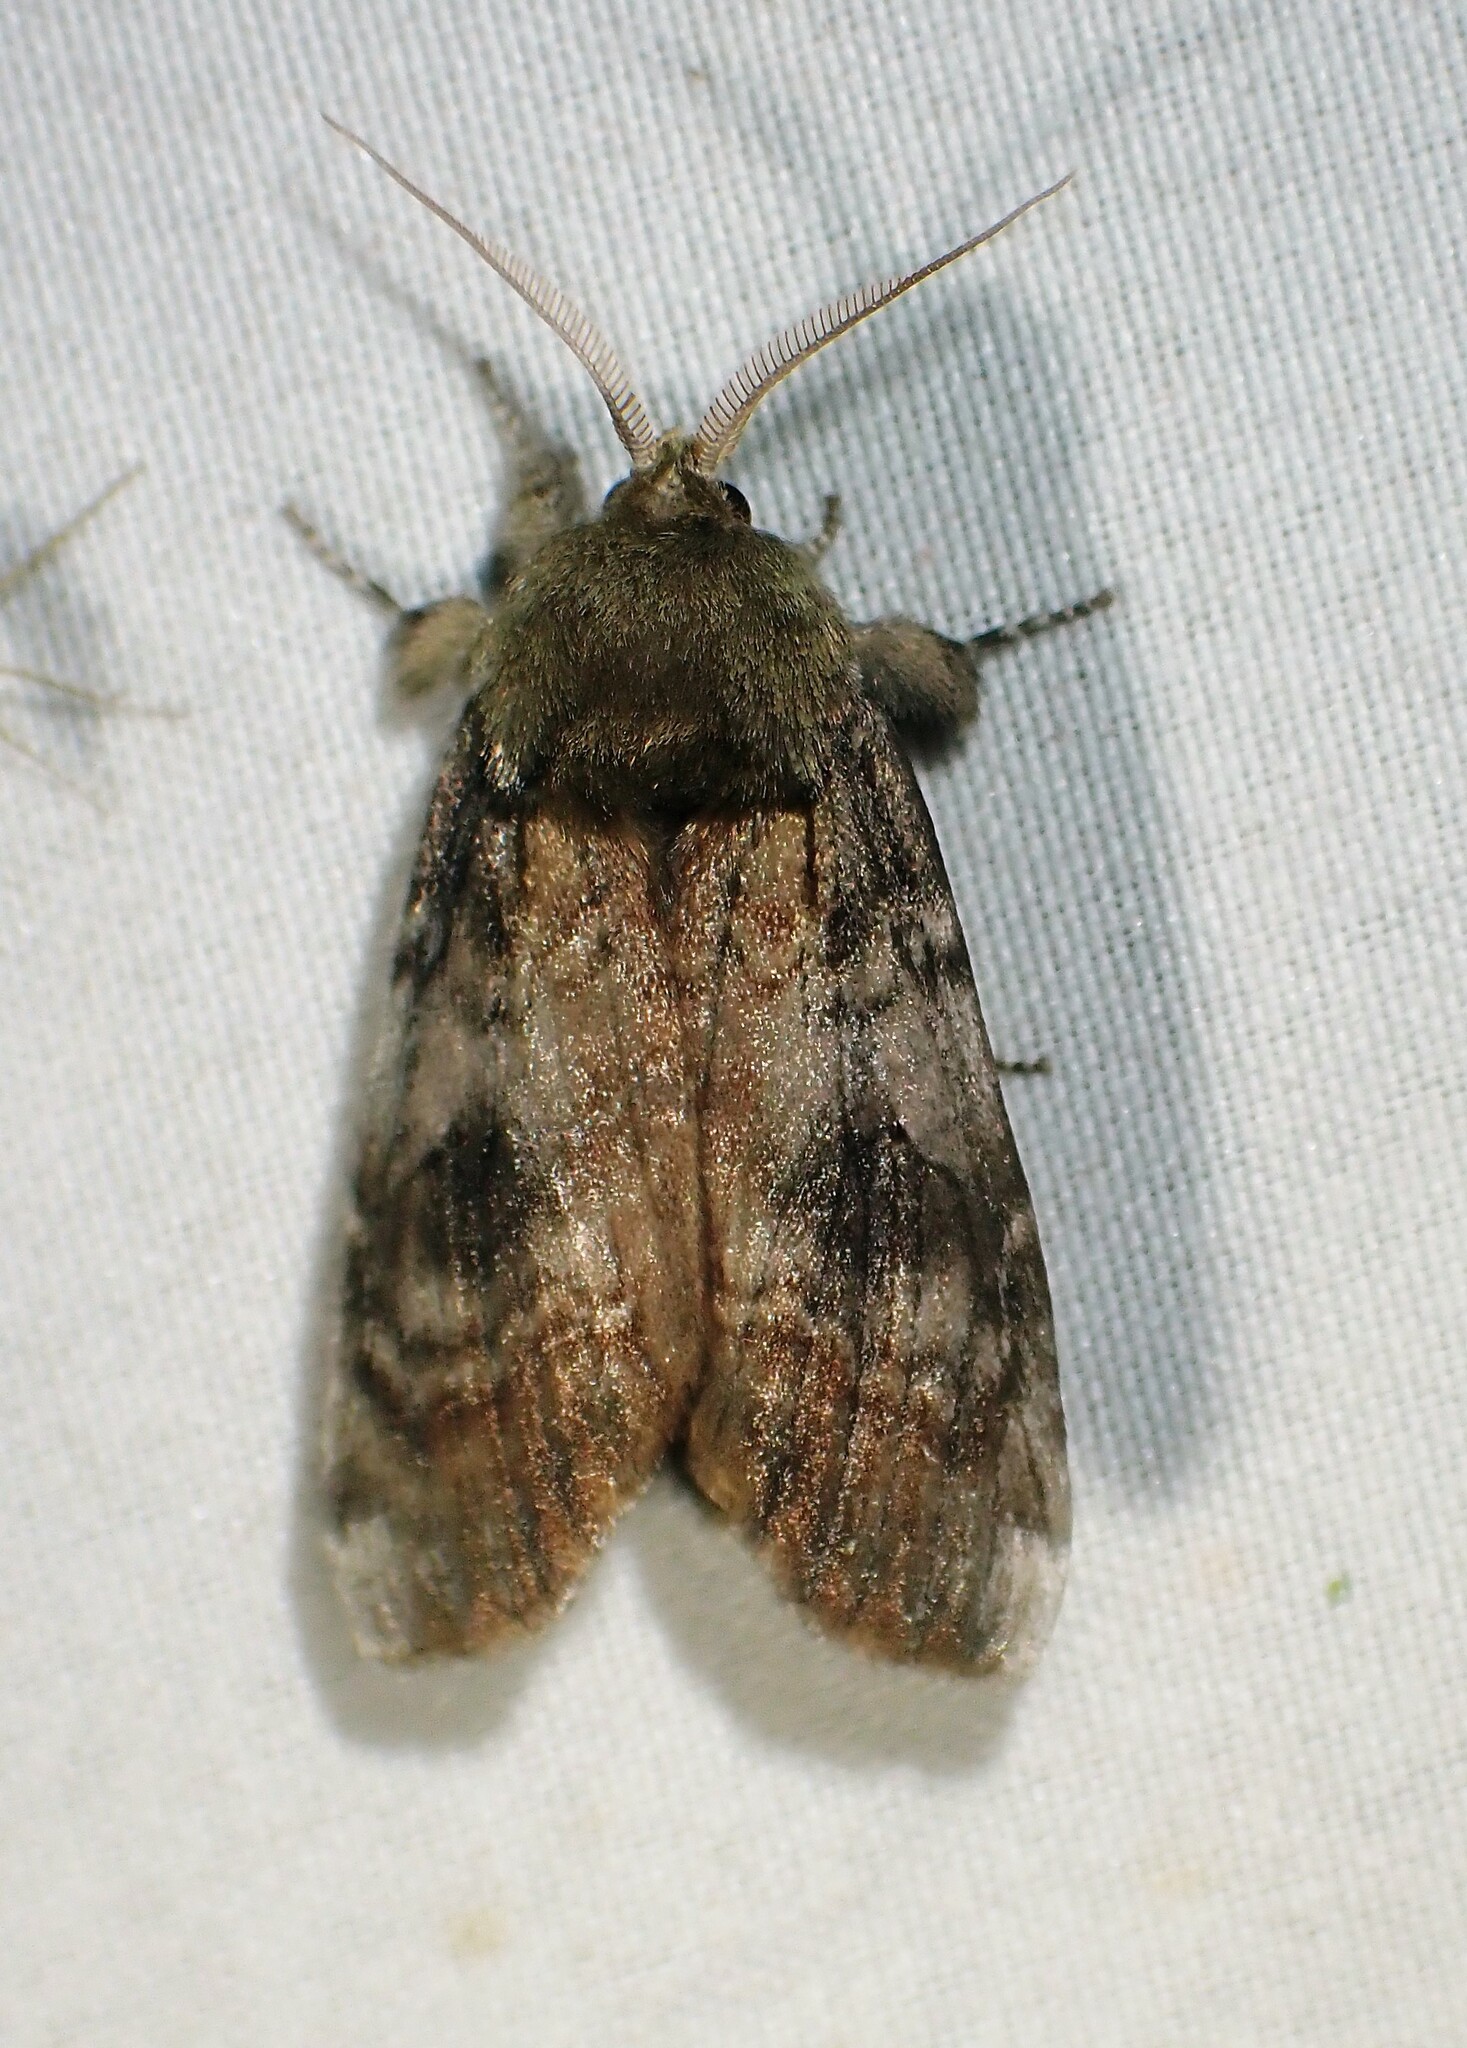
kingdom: Animalia
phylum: Arthropoda
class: Insecta
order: Lepidoptera
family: Notodontidae
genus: Schizura
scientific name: Schizura
